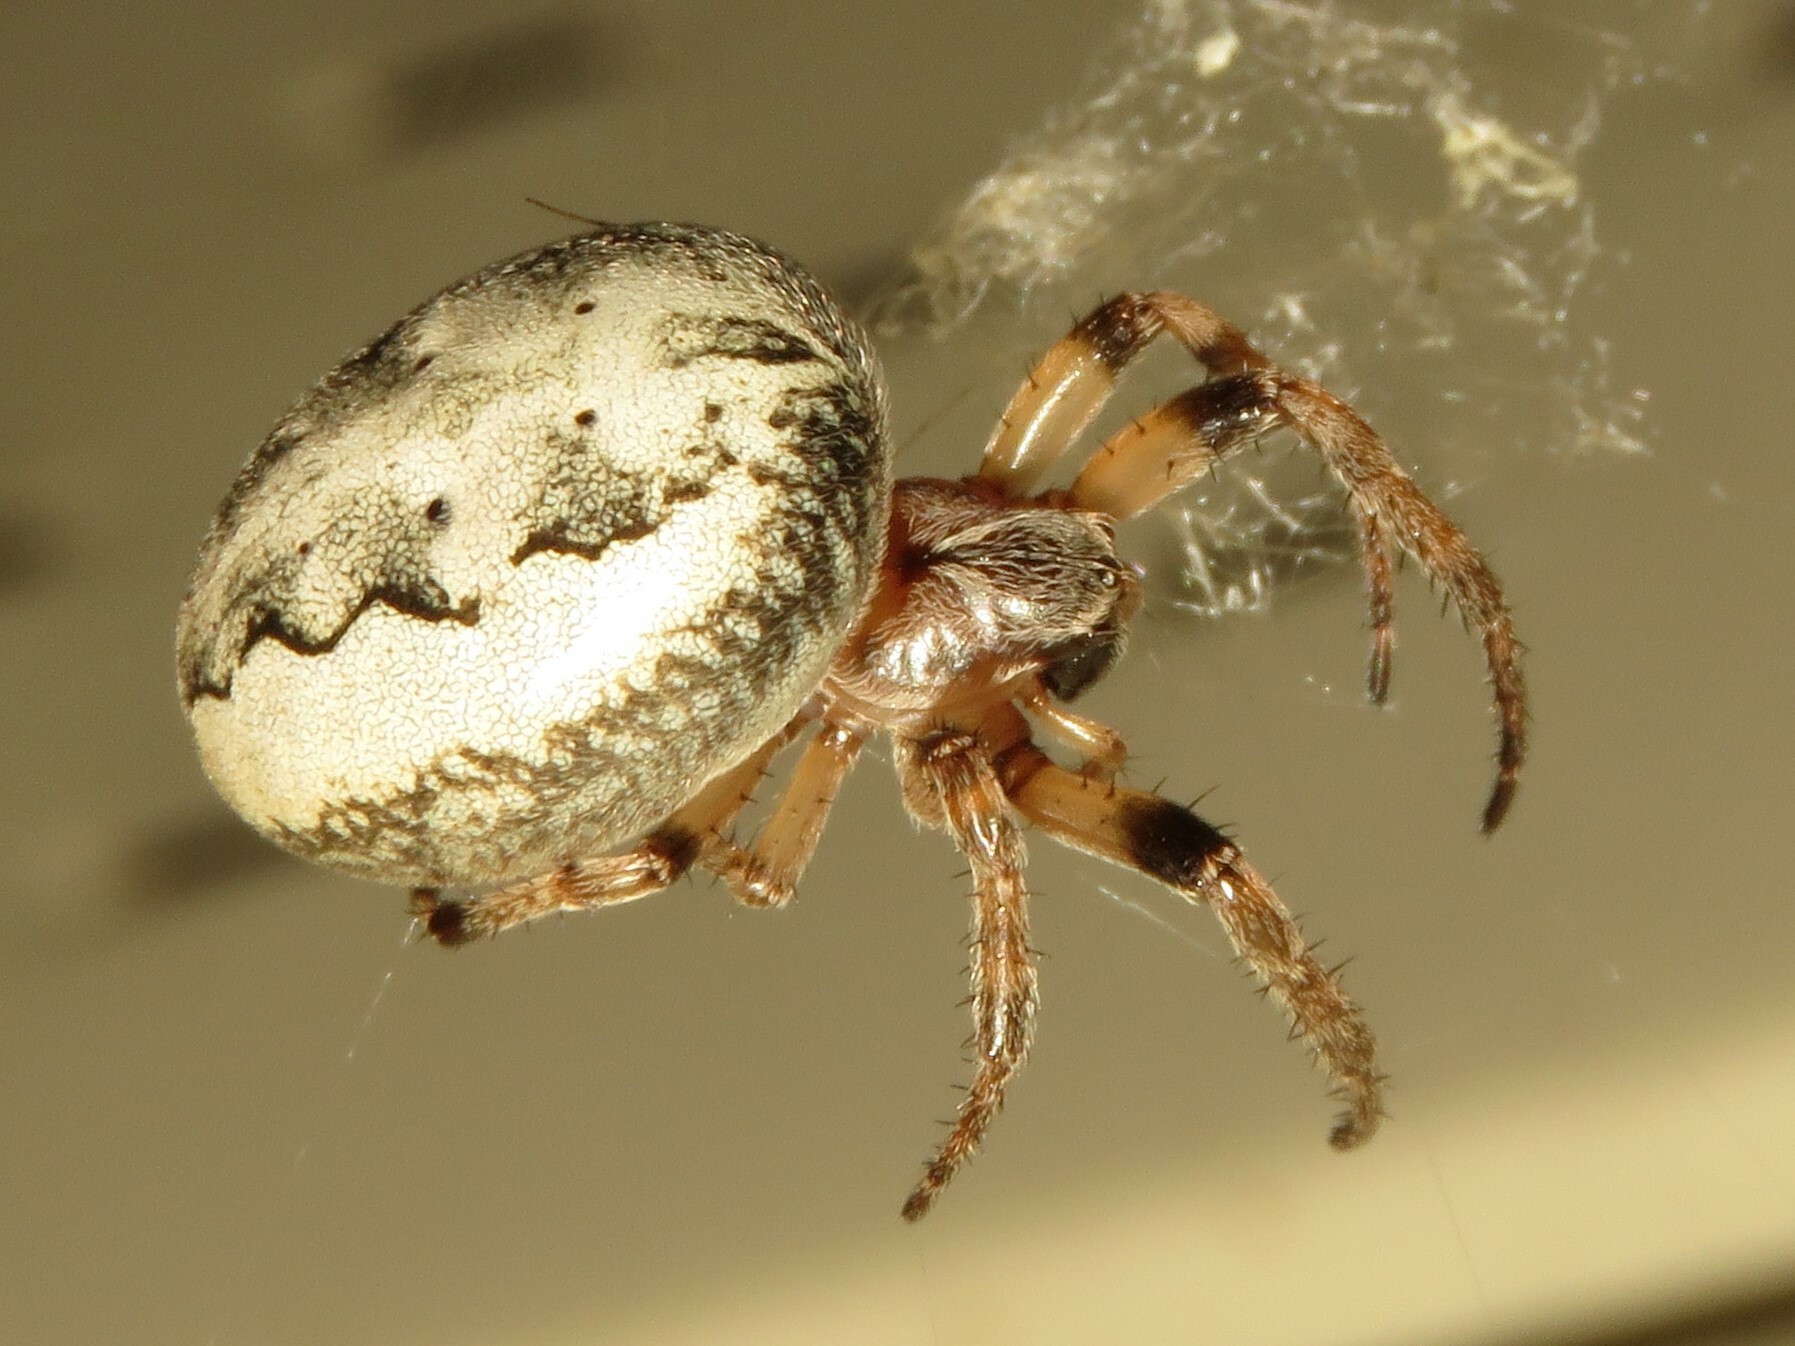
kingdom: Animalia
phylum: Arthropoda
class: Arachnida
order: Araneae
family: Araneidae
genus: Larinioides
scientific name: Larinioides cornutus
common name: Furrow orbweaver
